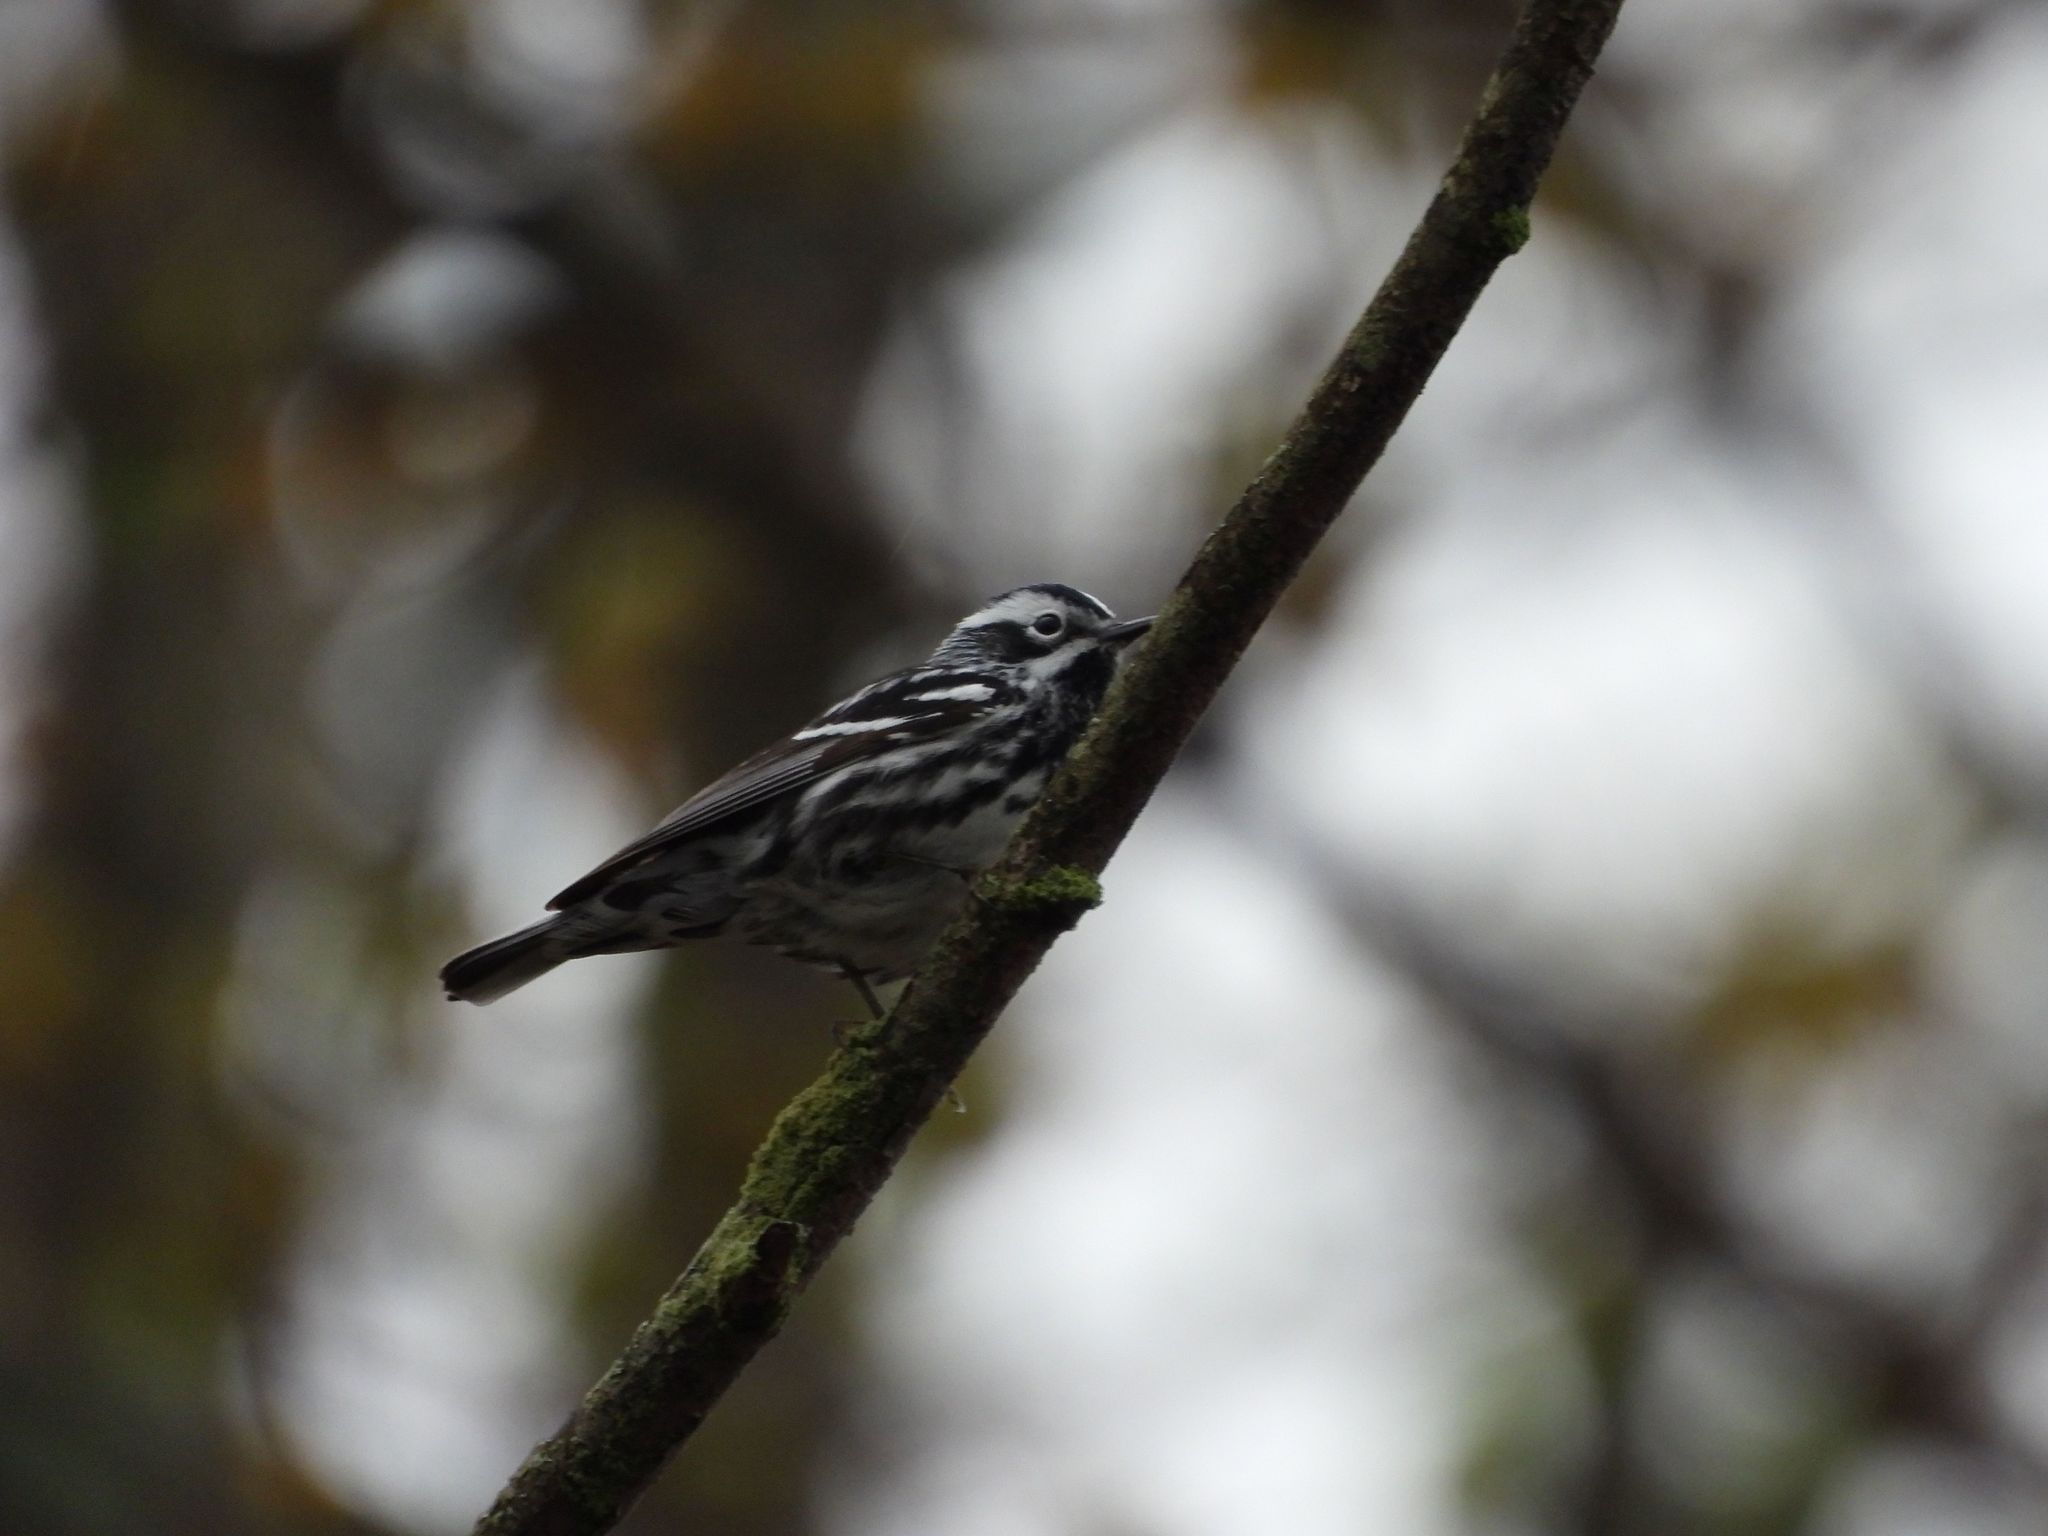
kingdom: Animalia
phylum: Chordata
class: Aves
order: Passeriformes
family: Parulidae
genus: Mniotilta
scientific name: Mniotilta varia
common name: Black-and-white warbler
